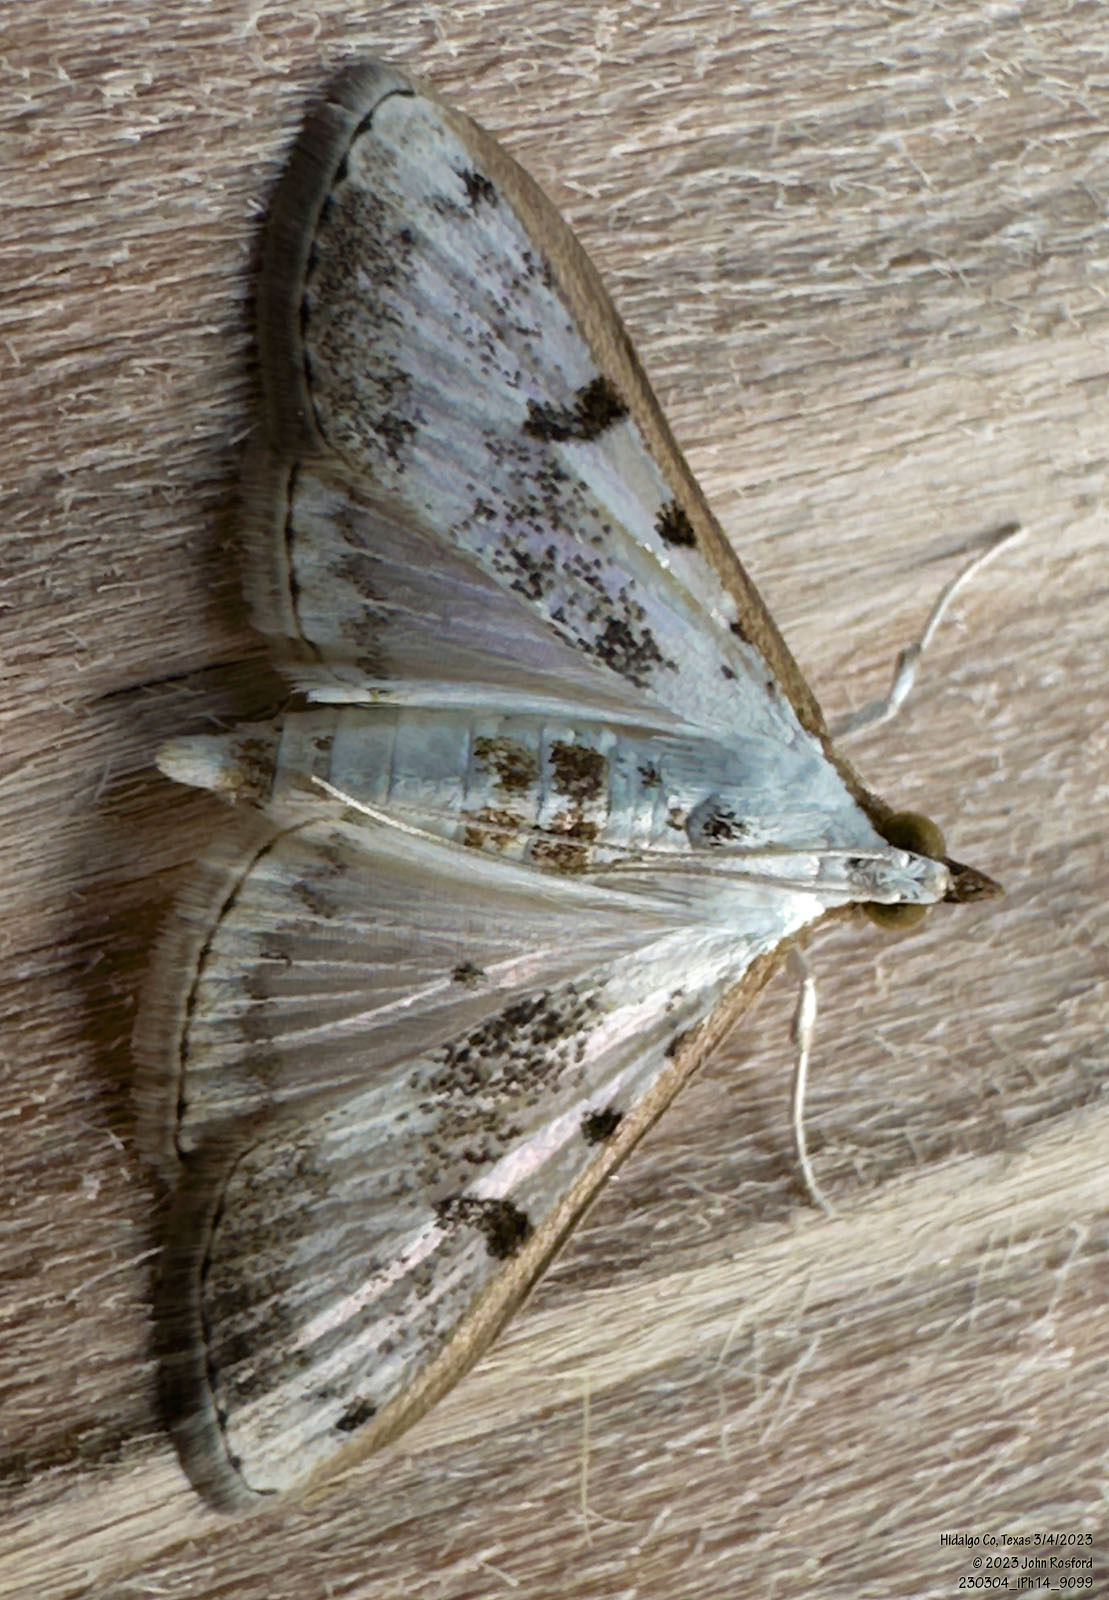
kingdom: Animalia
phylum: Arthropoda
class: Insecta
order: Lepidoptera
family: Crambidae
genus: Palpita
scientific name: Palpita gracilalis
